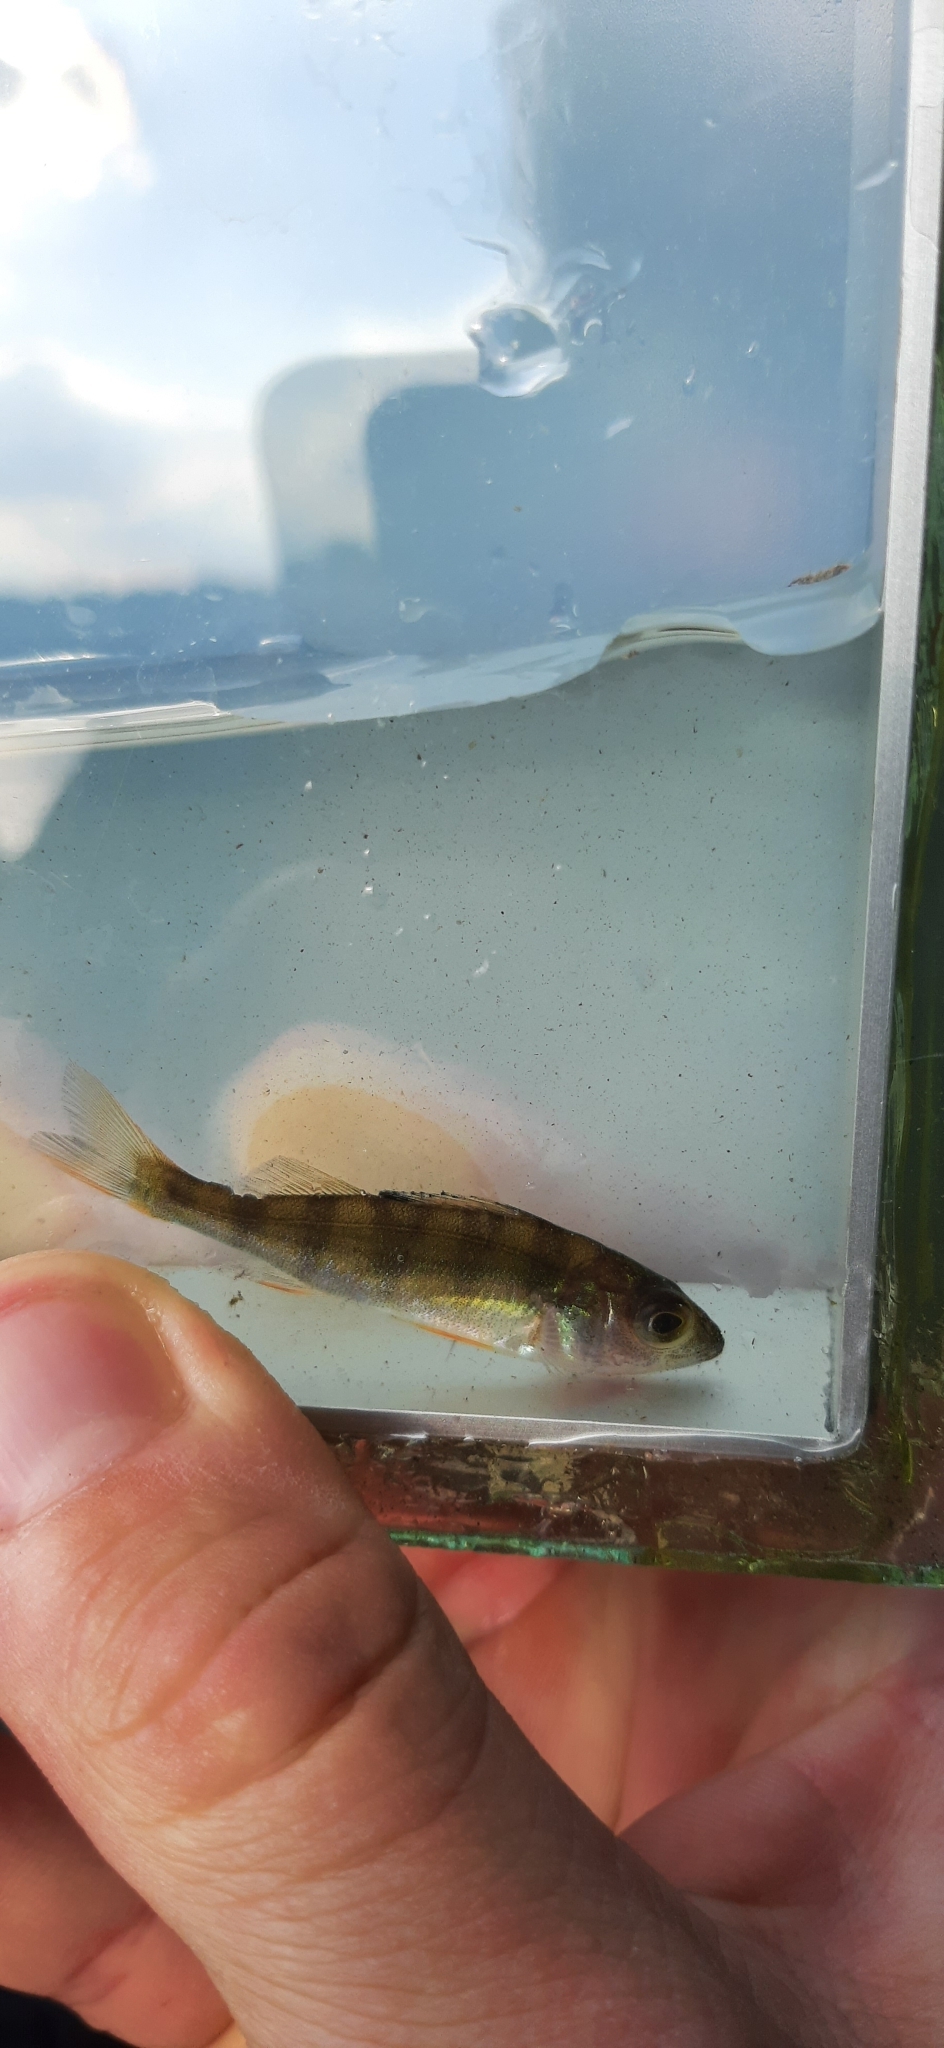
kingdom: Animalia
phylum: Chordata
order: Perciformes
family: Percidae
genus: Perca
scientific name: Perca fluviatilis
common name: Perch
